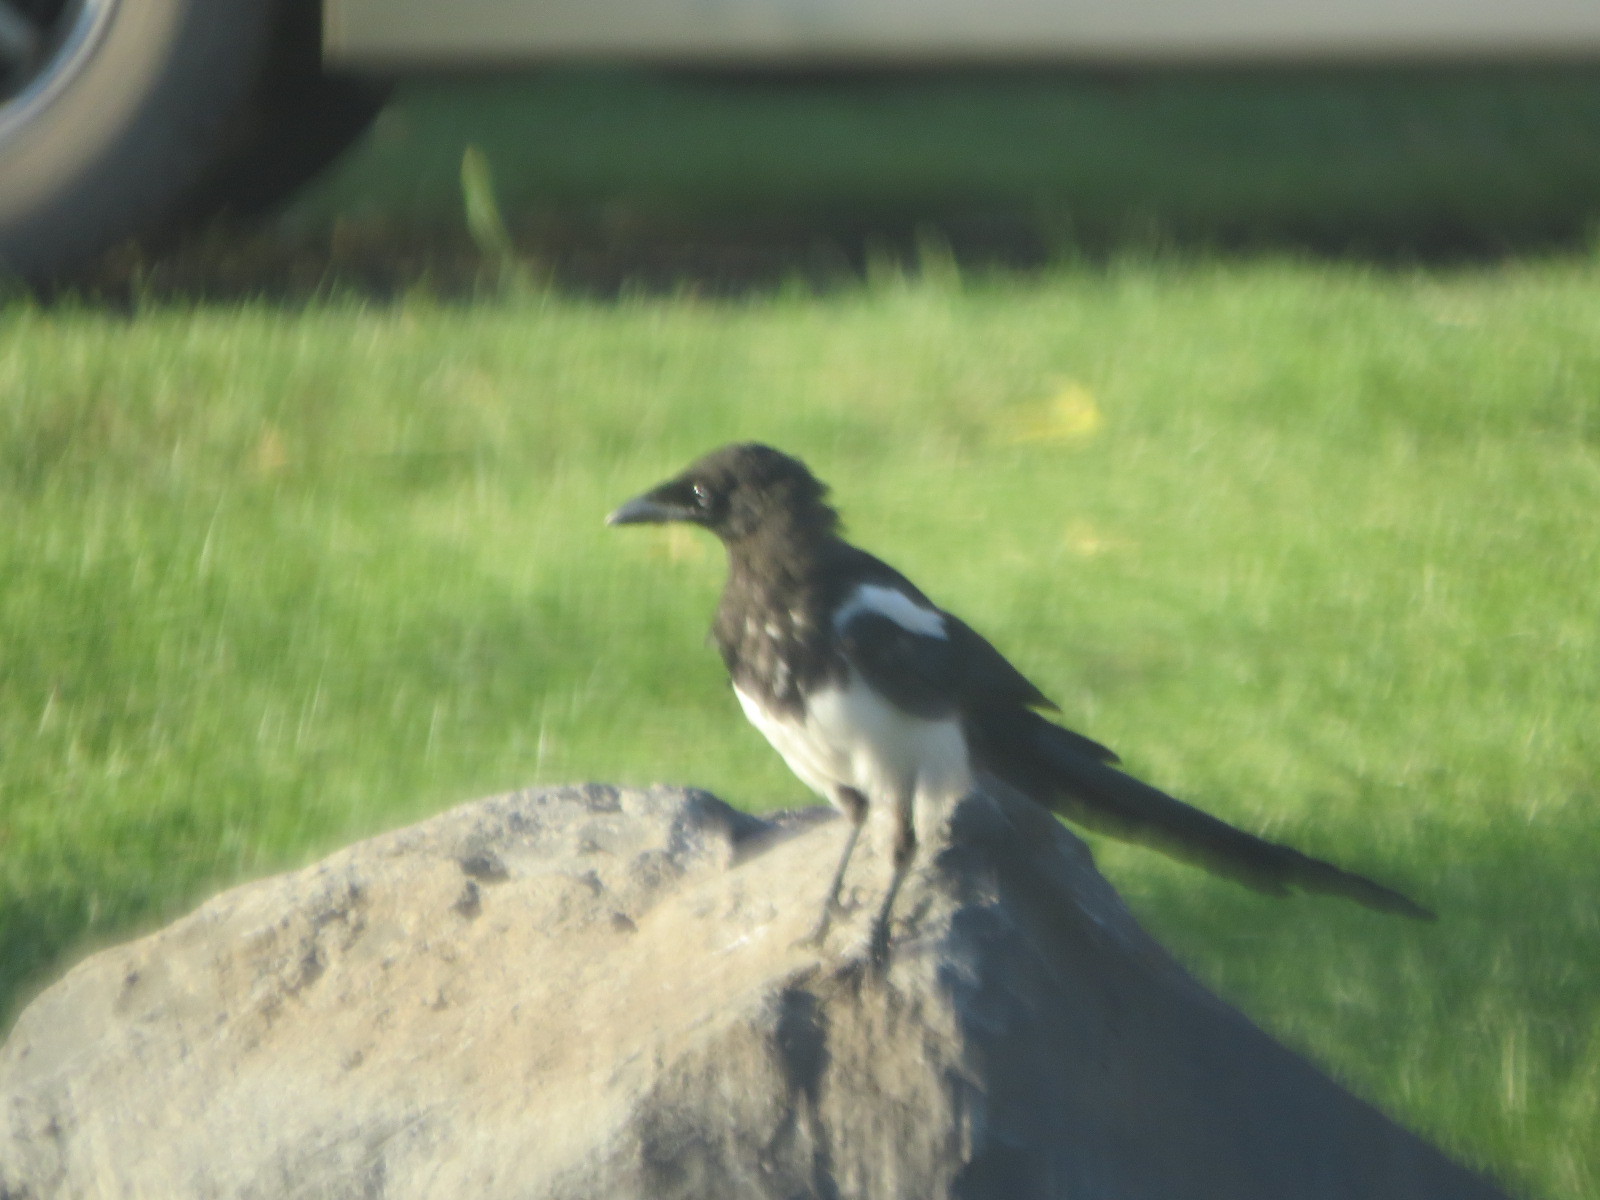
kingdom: Animalia
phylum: Chordata
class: Aves
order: Passeriformes
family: Corvidae
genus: Pica
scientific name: Pica hudsonia
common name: Black-billed magpie
